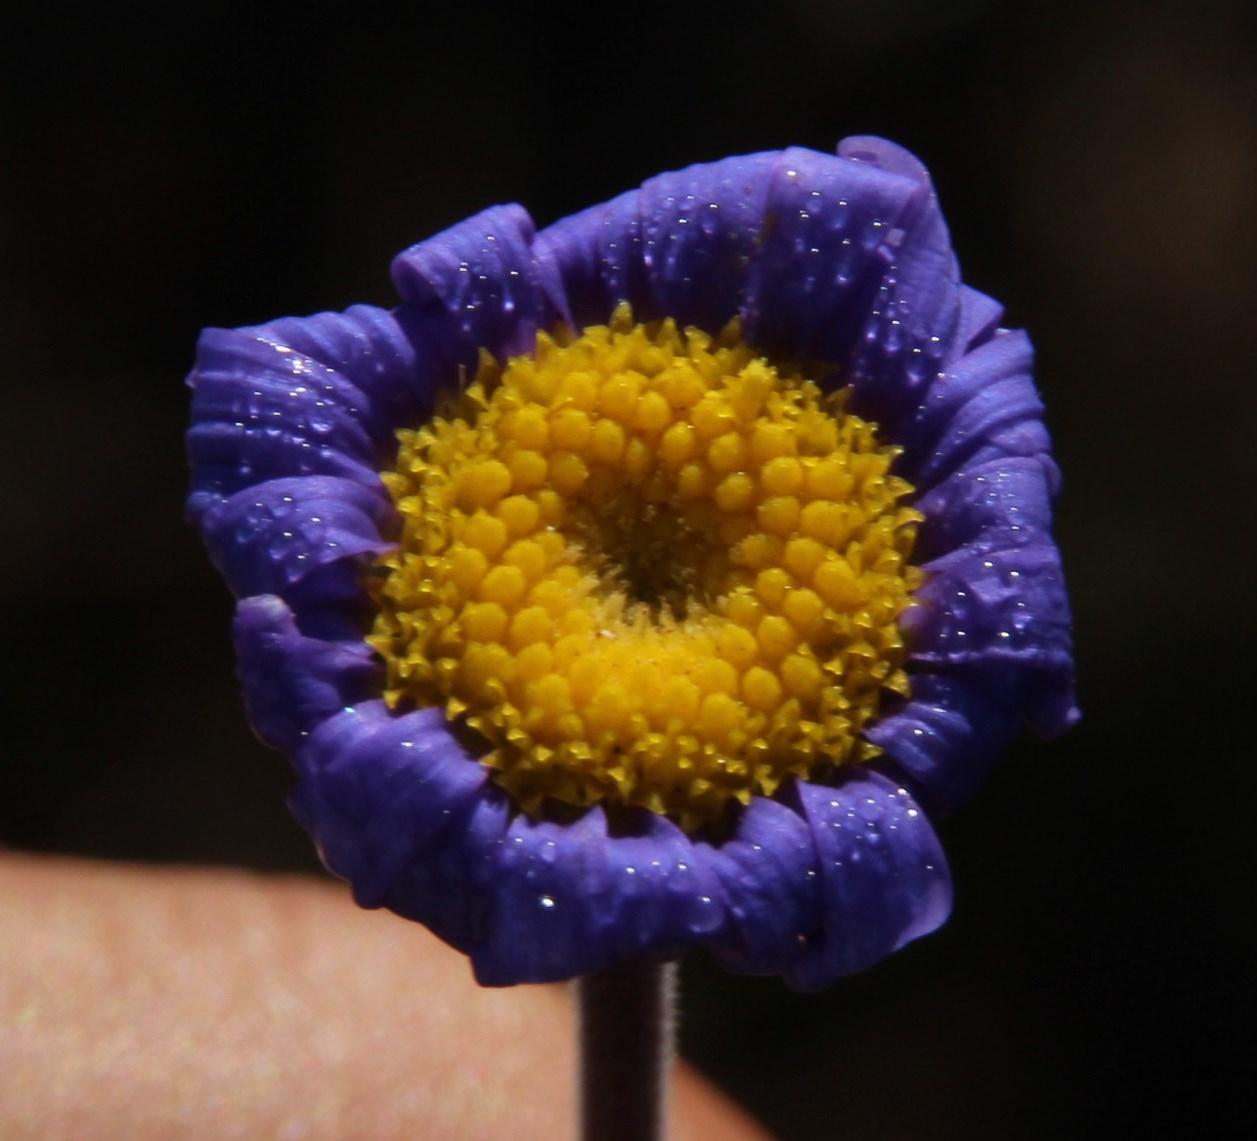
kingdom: Plantae
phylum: Tracheophyta
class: Magnoliopsida
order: Asterales
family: Asteraceae
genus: Felicia
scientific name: Felicia amoena
